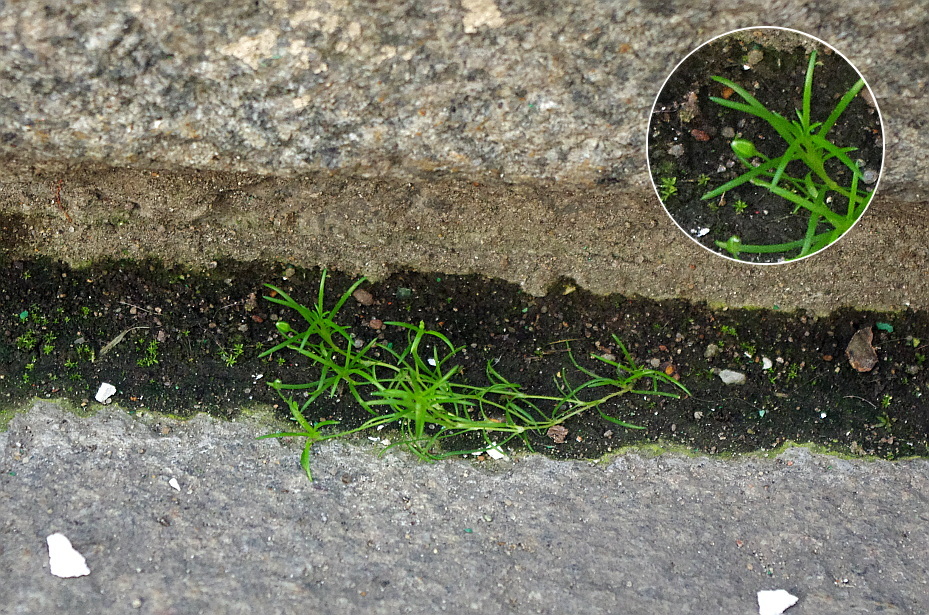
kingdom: Plantae
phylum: Tracheophyta
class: Magnoliopsida
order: Caryophyllales
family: Caryophyllaceae
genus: Sagina
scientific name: Sagina procumbens
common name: Procumbent pearlwort
